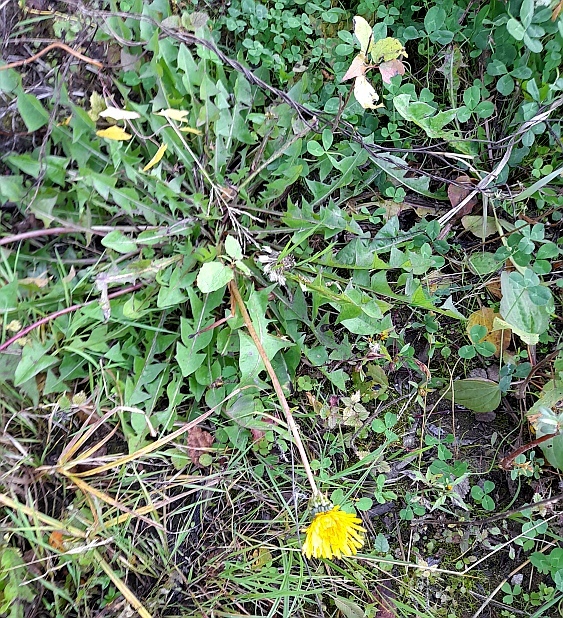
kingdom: Plantae
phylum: Tracheophyta
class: Magnoliopsida
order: Asterales
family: Asteraceae
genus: Taraxacum
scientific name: Taraxacum officinale
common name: Common dandelion
